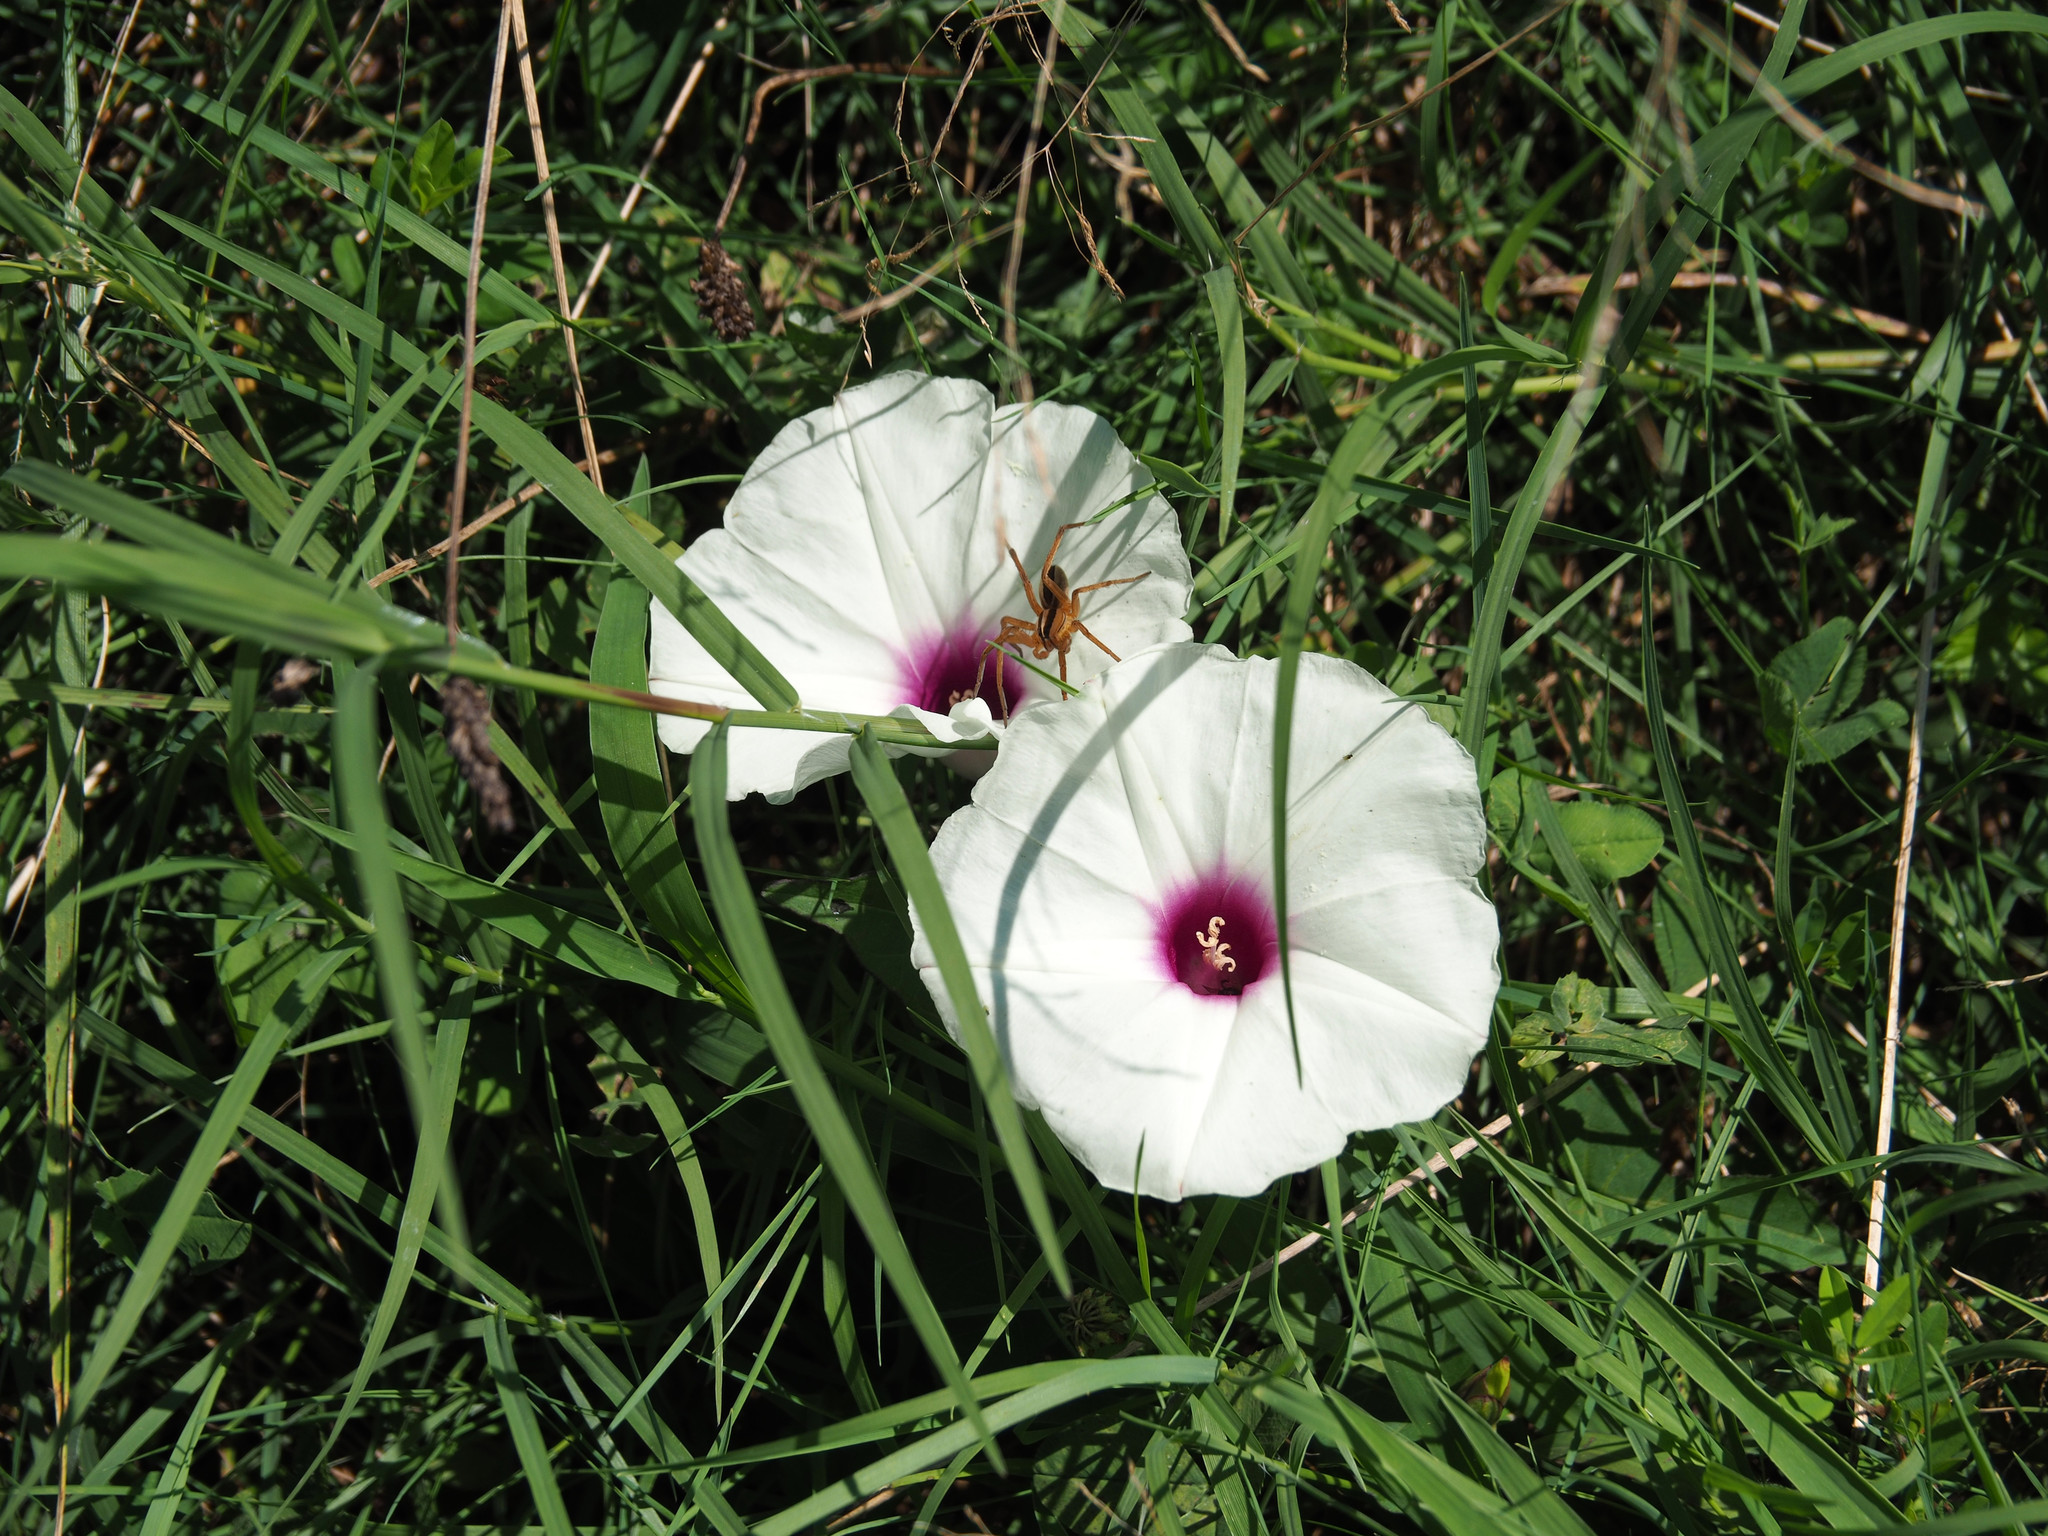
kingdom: Plantae
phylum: Tracheophyta
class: Magnoliopsida
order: Solanales
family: Convolvulaceae
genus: Ipomoea
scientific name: Ipomoea pandurata
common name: Man-of-the-earth
